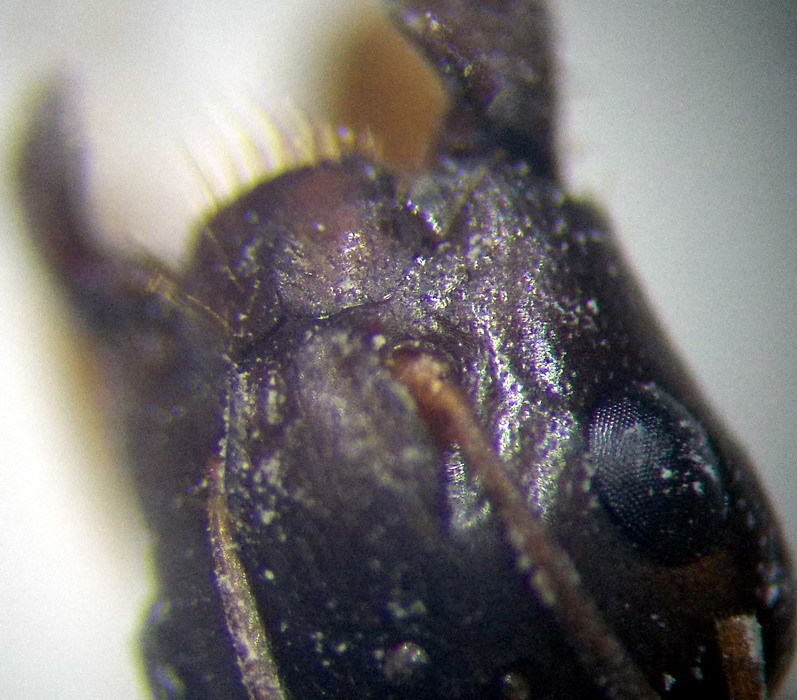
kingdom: Animalia
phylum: Arthropoda
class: Insecta
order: Hymenoptera
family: Formicidae
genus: Camponotus
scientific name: Camponotus fedtschenkoi
